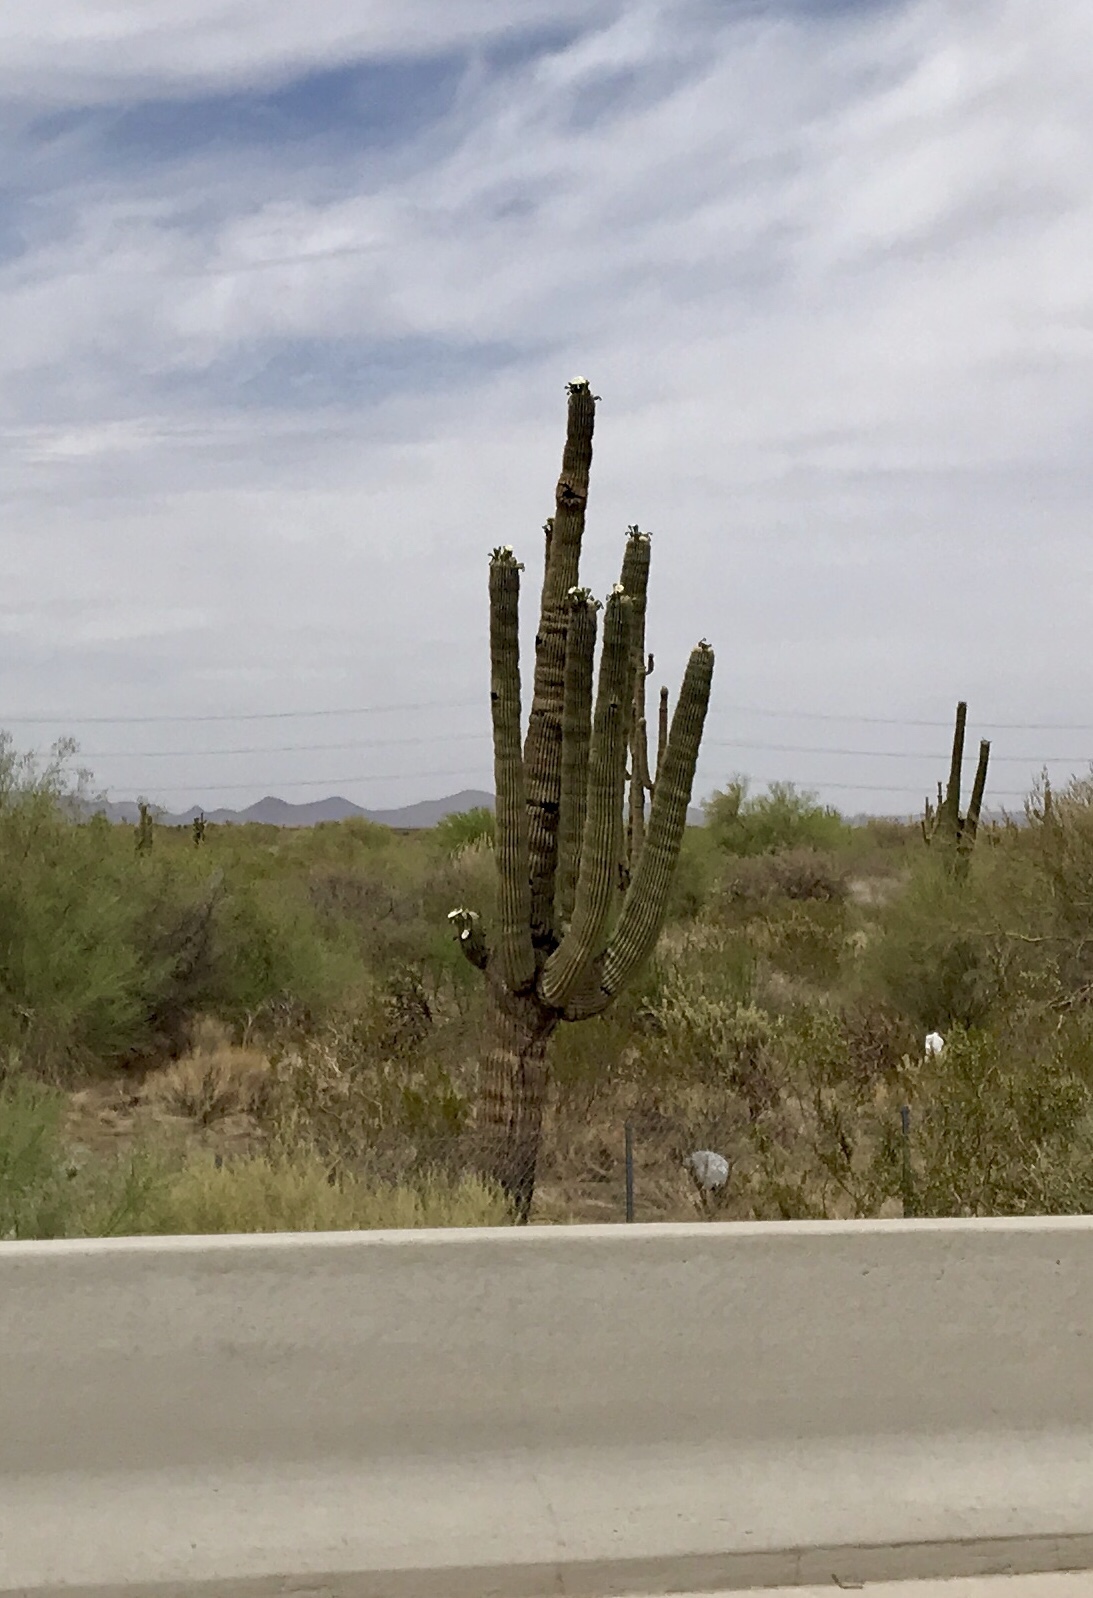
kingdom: Plantae
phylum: Tracheophyta
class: Magnoliopsida
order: Caryophyllales
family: Cactaceae
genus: Carnegiea
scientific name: Carnegiea gigantea
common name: Saguaro
